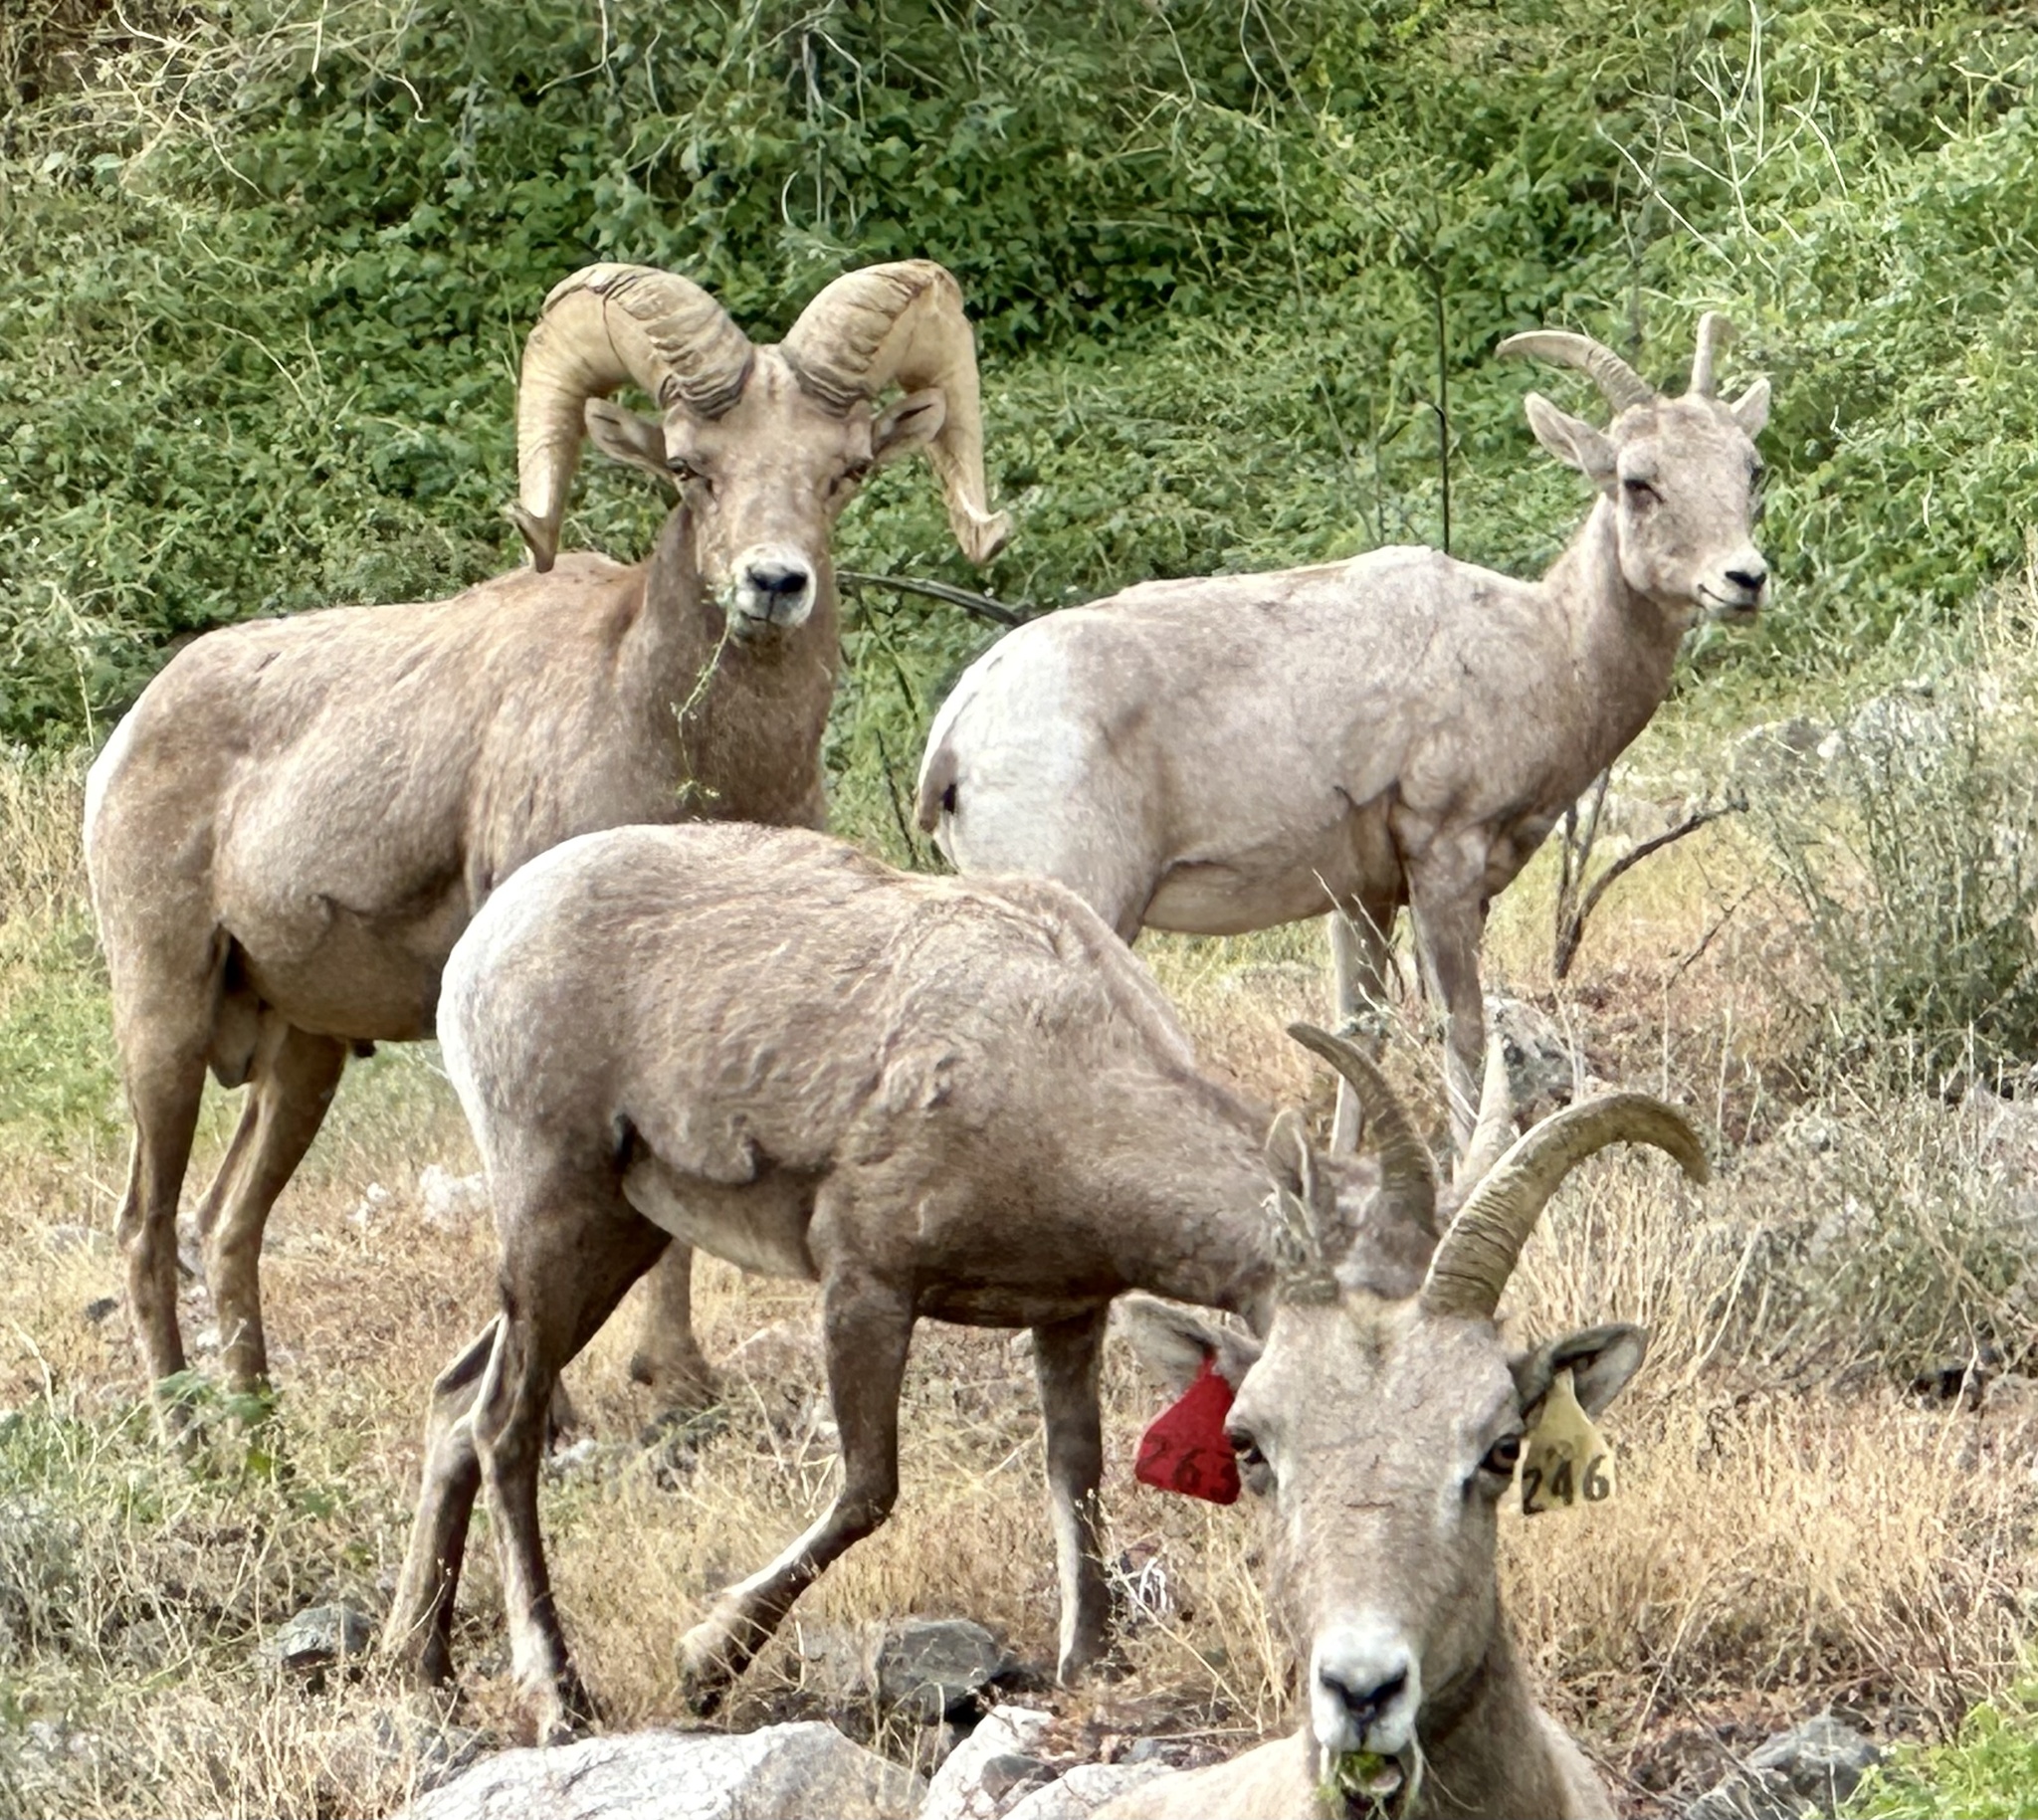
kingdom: Animalia
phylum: Chordata
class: Mammalia
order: Artiodactyla
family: Bovidae
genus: Ovis
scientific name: Ovis canadensis
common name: Bighorn sheep
